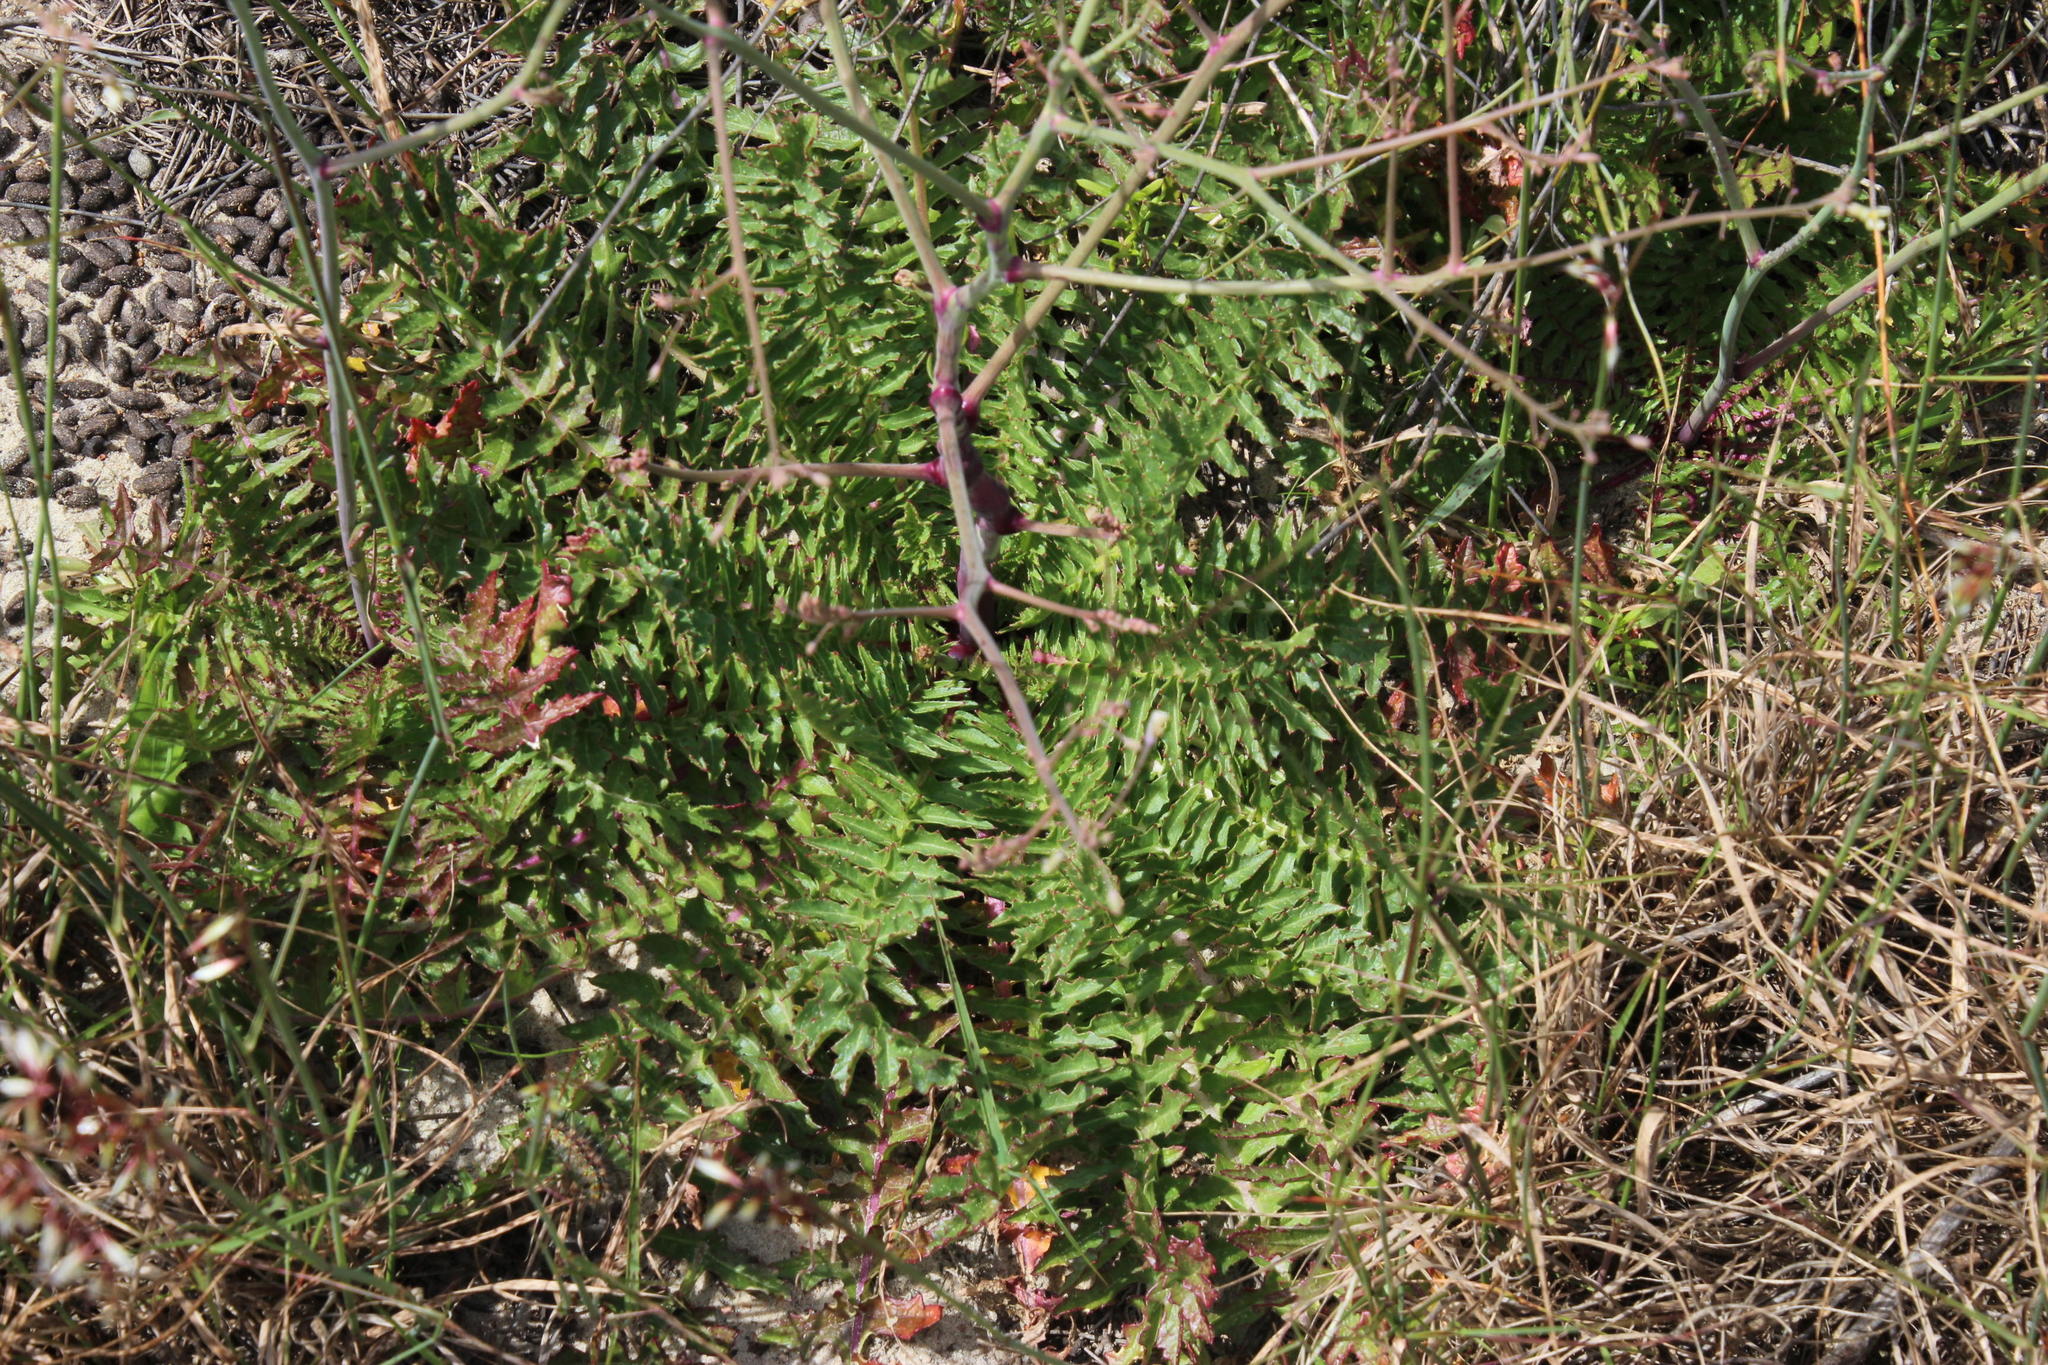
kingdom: Plantae
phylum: Tracheophyta
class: Magnoliopsida
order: Brassicales
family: Brassicaceae
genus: Raphanus
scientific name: Raphanus raphanistrum
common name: Wild radish
